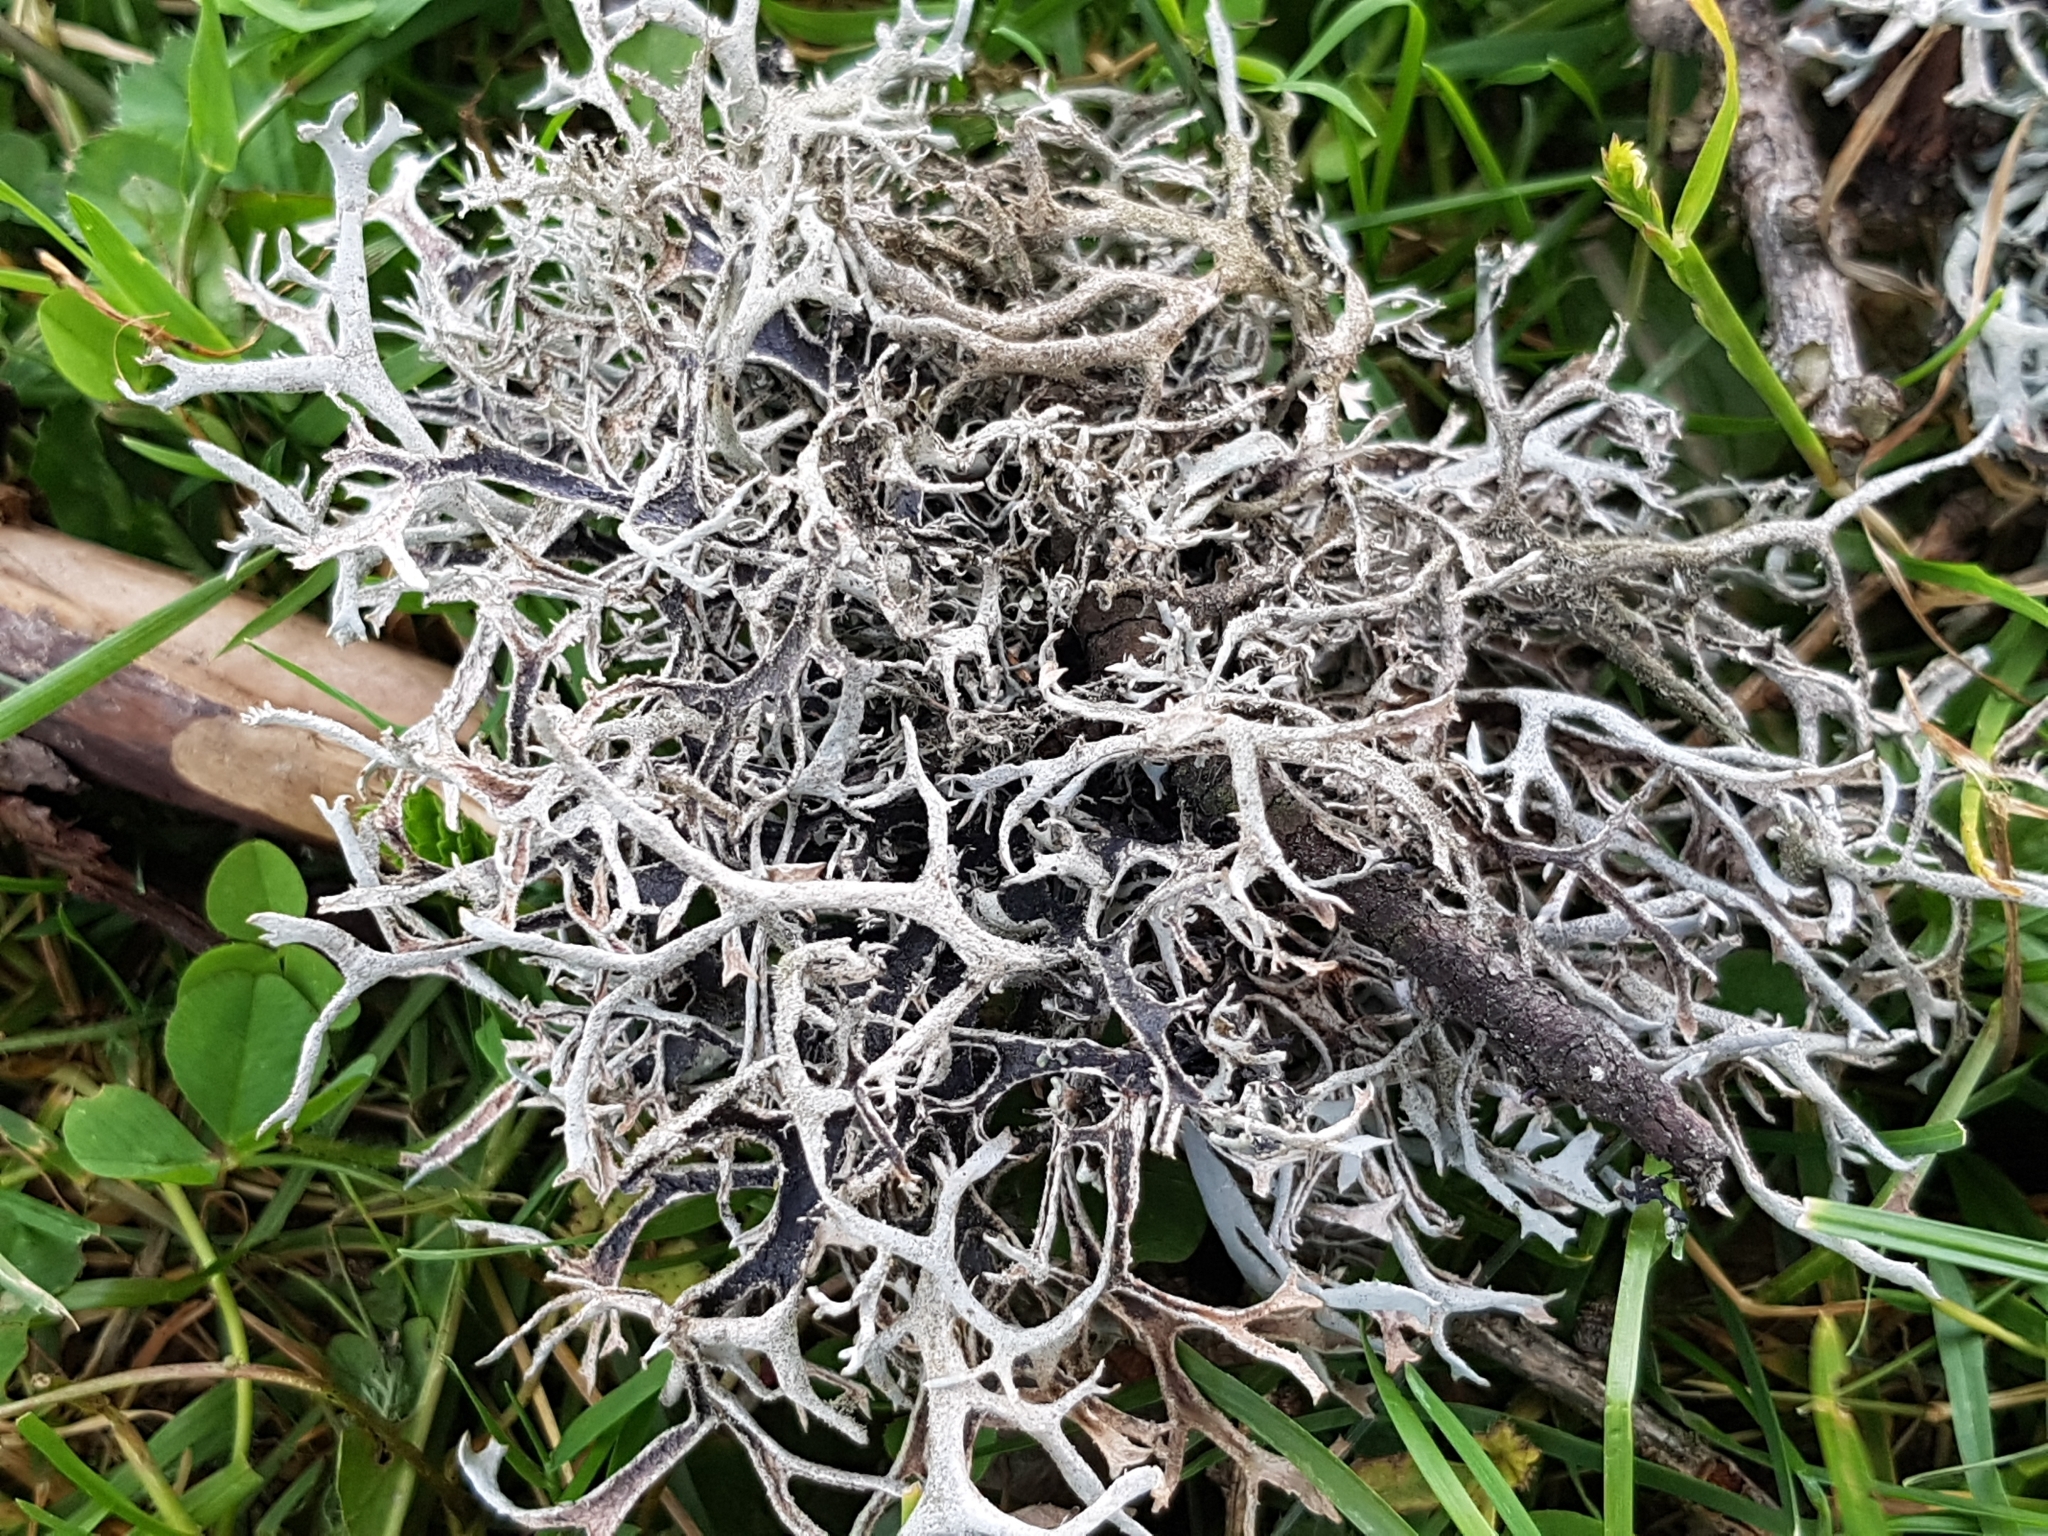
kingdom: Fungi
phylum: Ascomycota
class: Lecanoromycetes
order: Lecanorales
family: Parmeliaceae
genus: Pseudevernia
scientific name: Pseudevernia furfuracea
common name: Tree moss
